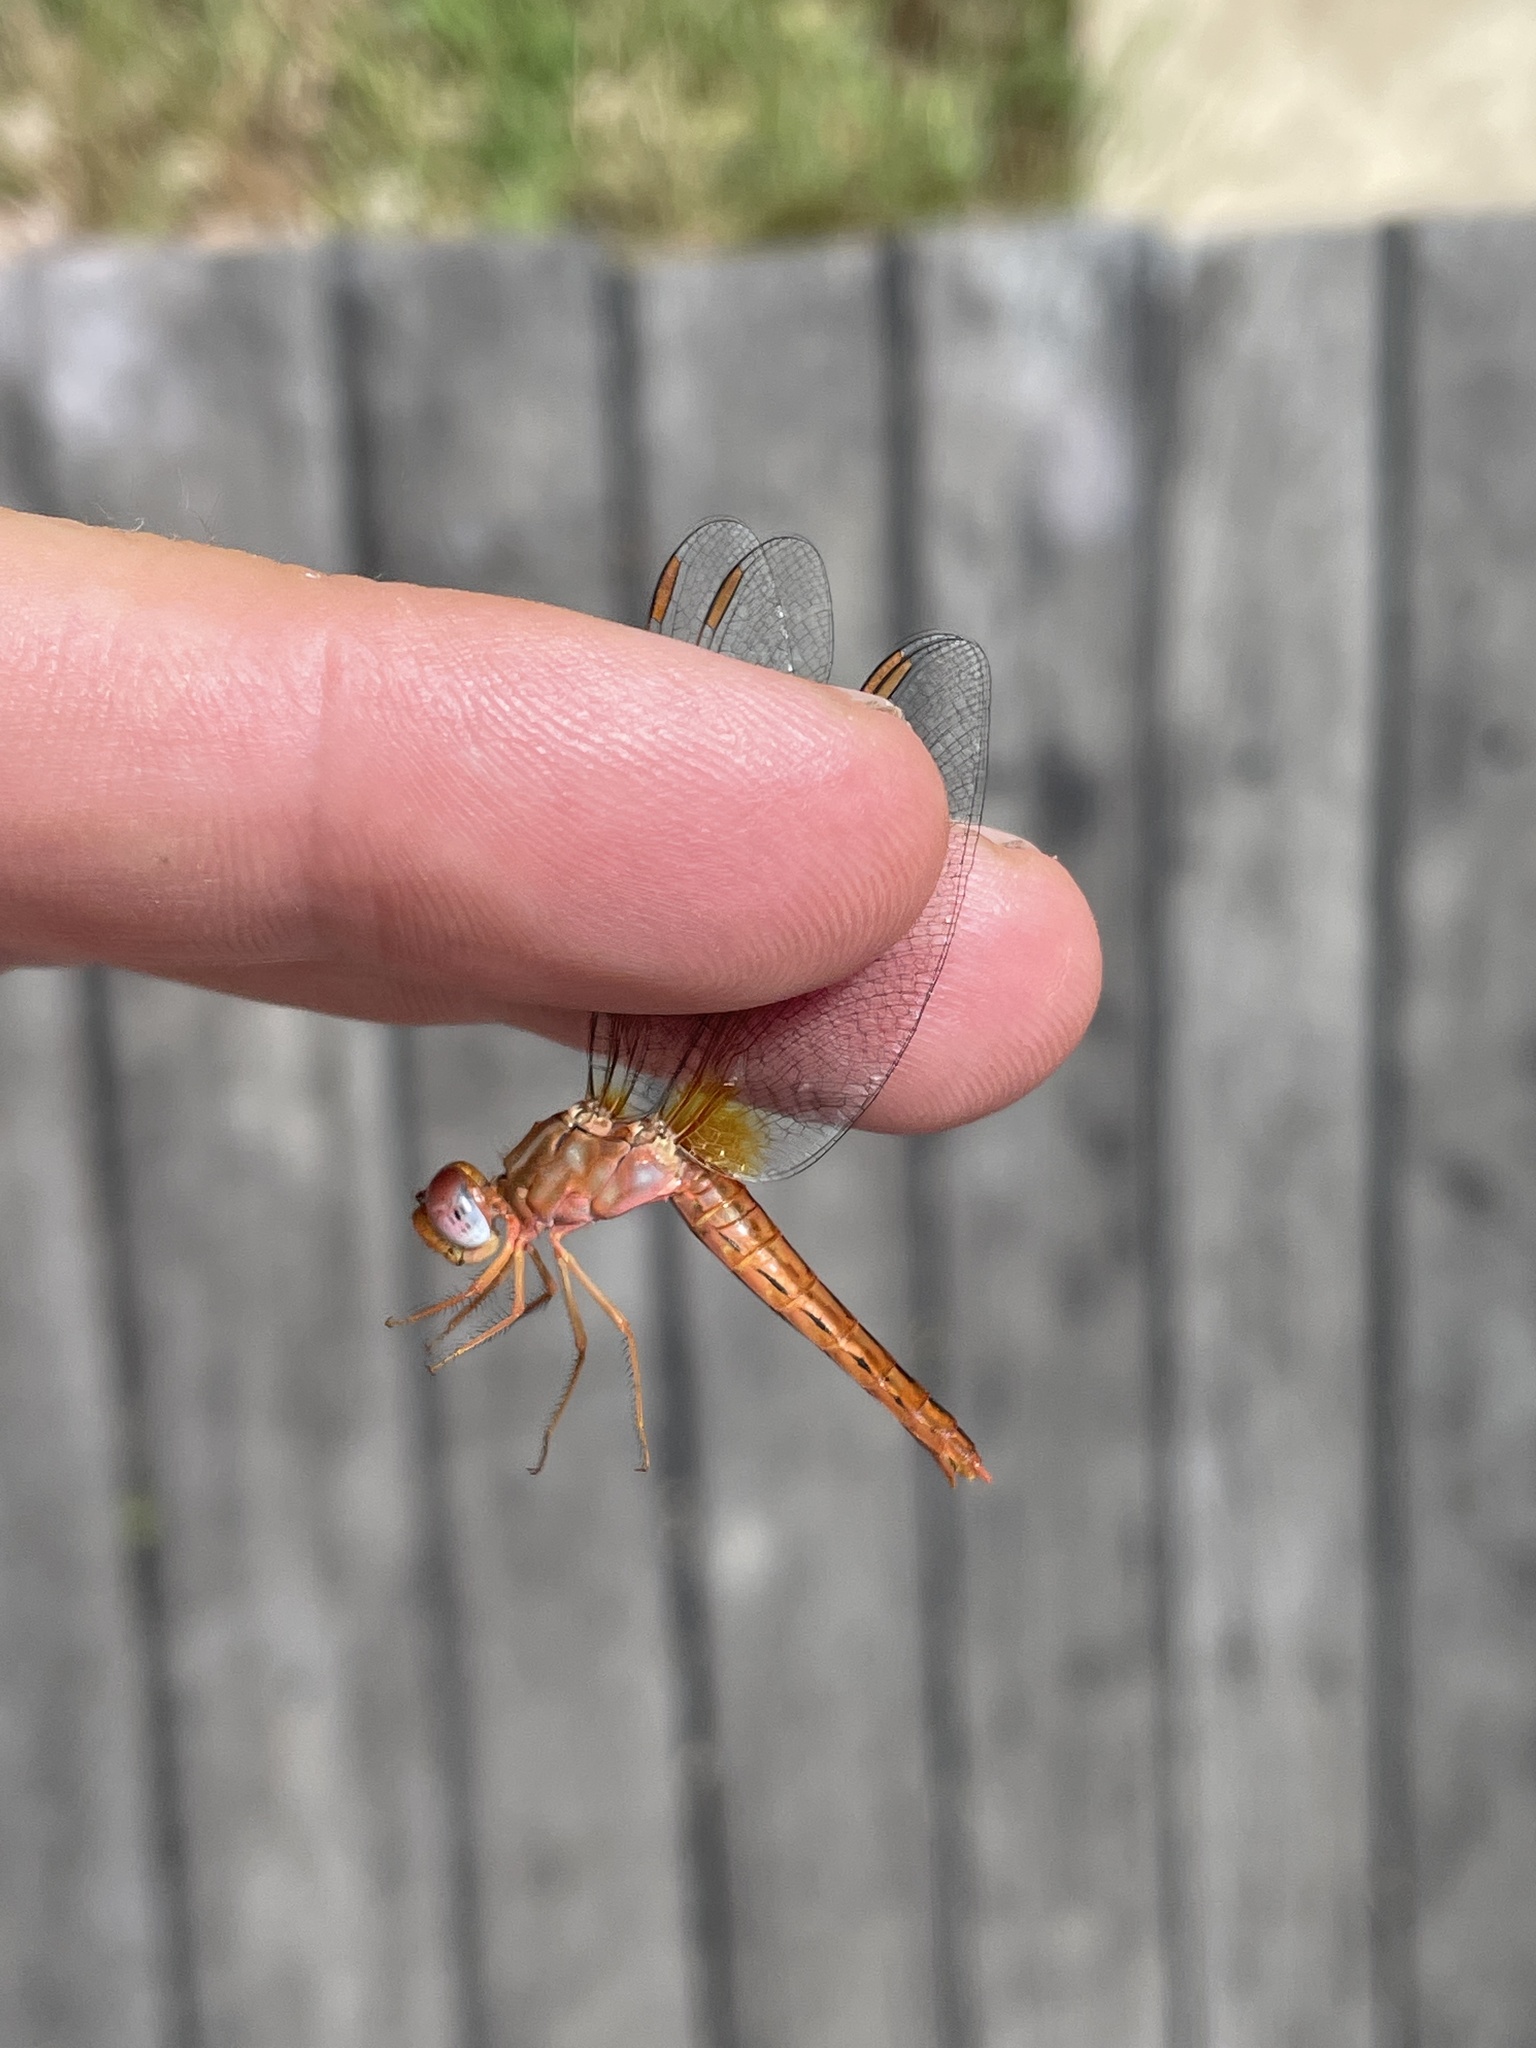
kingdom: Animalia
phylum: Arthropoda
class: Insecta
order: Odonata
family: Libellulidae
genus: Crocothemis
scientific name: Crocothemis sanguinolenta
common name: Little scarlet
